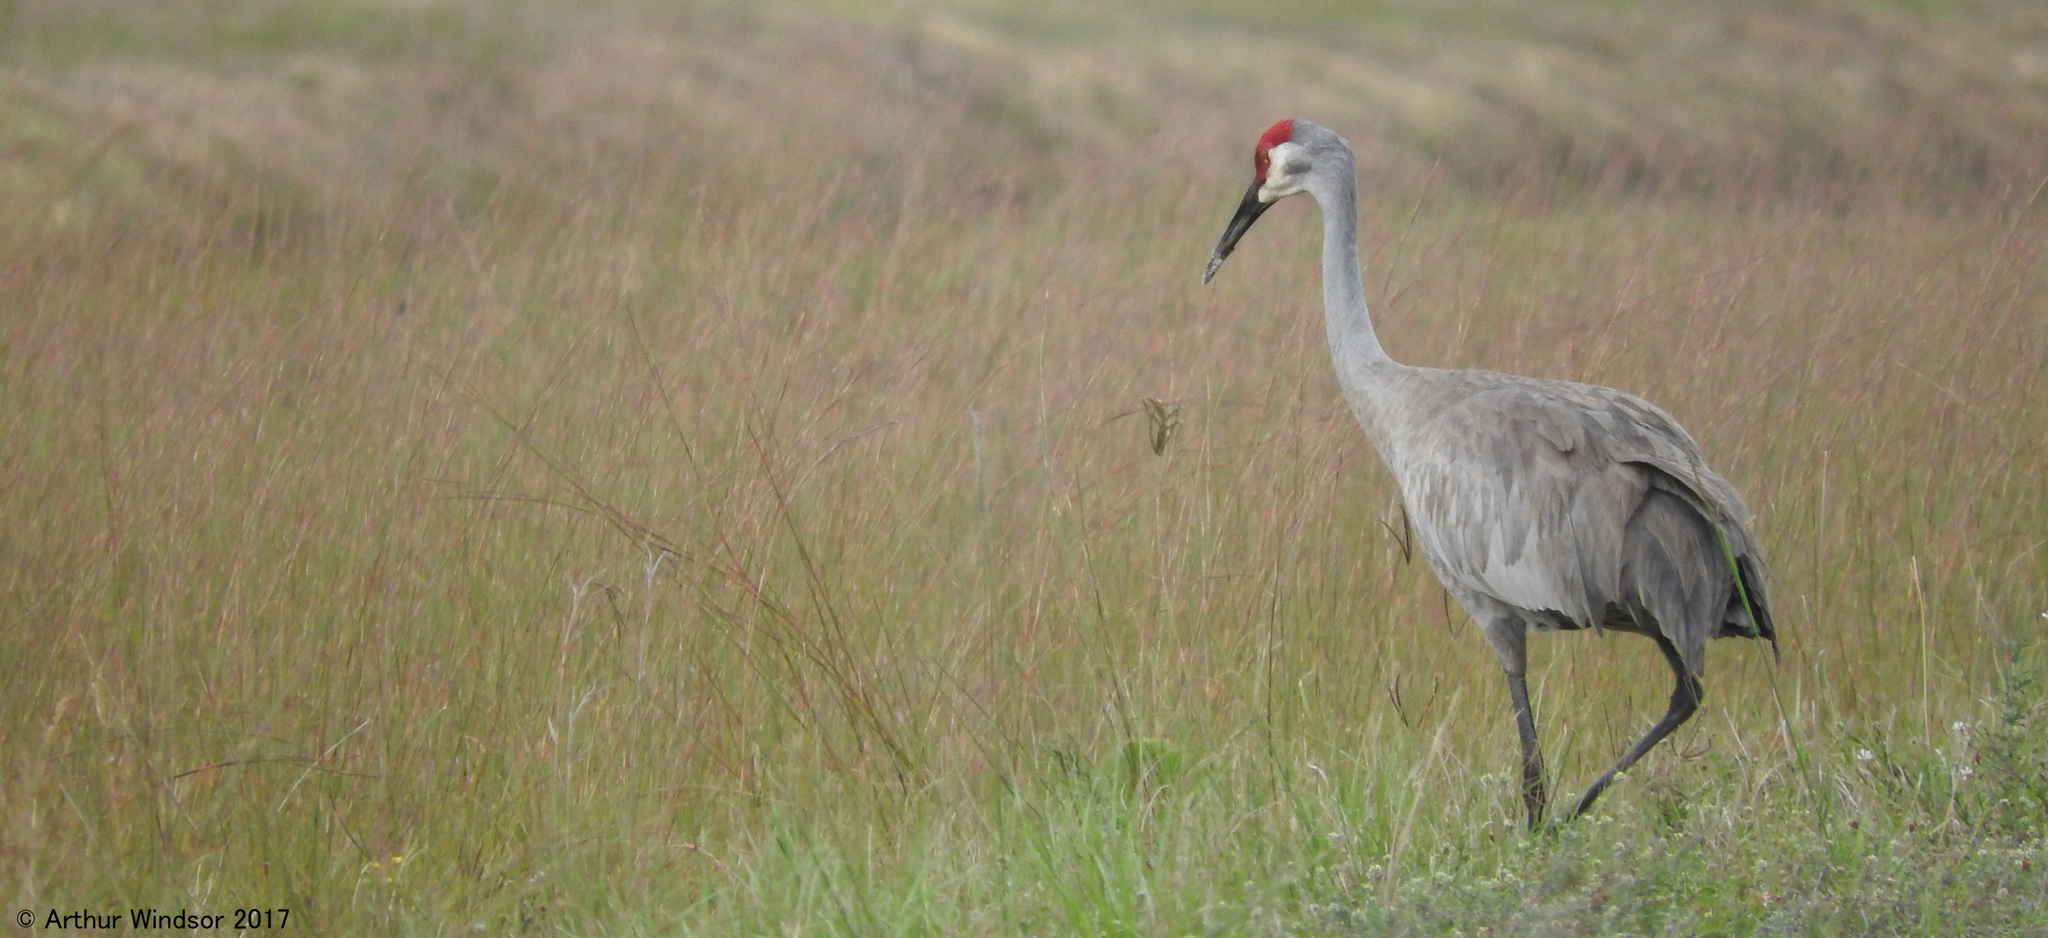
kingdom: Animalia
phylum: Chordata
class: Aves
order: Gruiformes
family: Gruidae
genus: Grus
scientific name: Grus canadensis
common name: Sandhill crane
